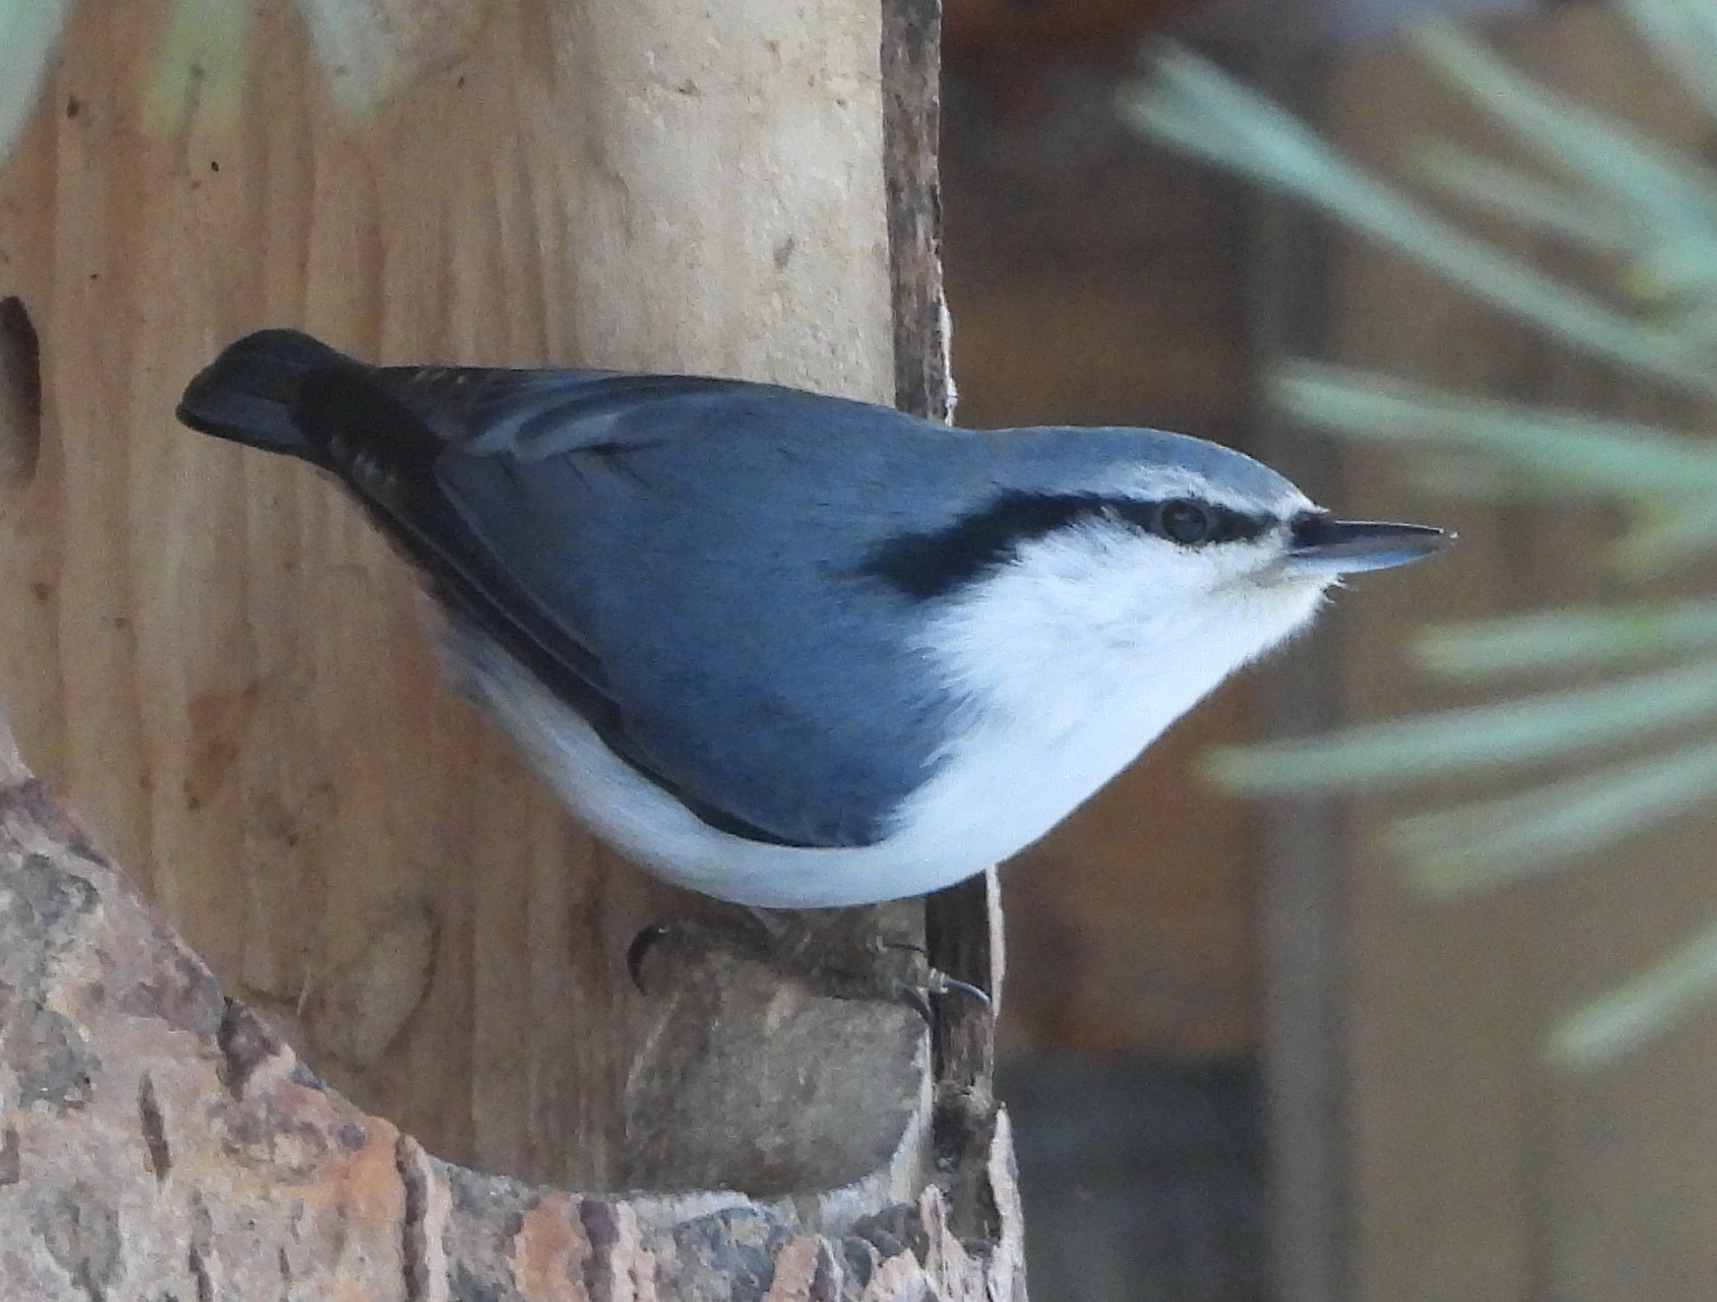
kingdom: Animalia
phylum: Chordata
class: Aves
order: Passeriformes
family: Sittidae
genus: Sitta
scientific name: Sitta europaea
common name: Eurasian nuthatch
